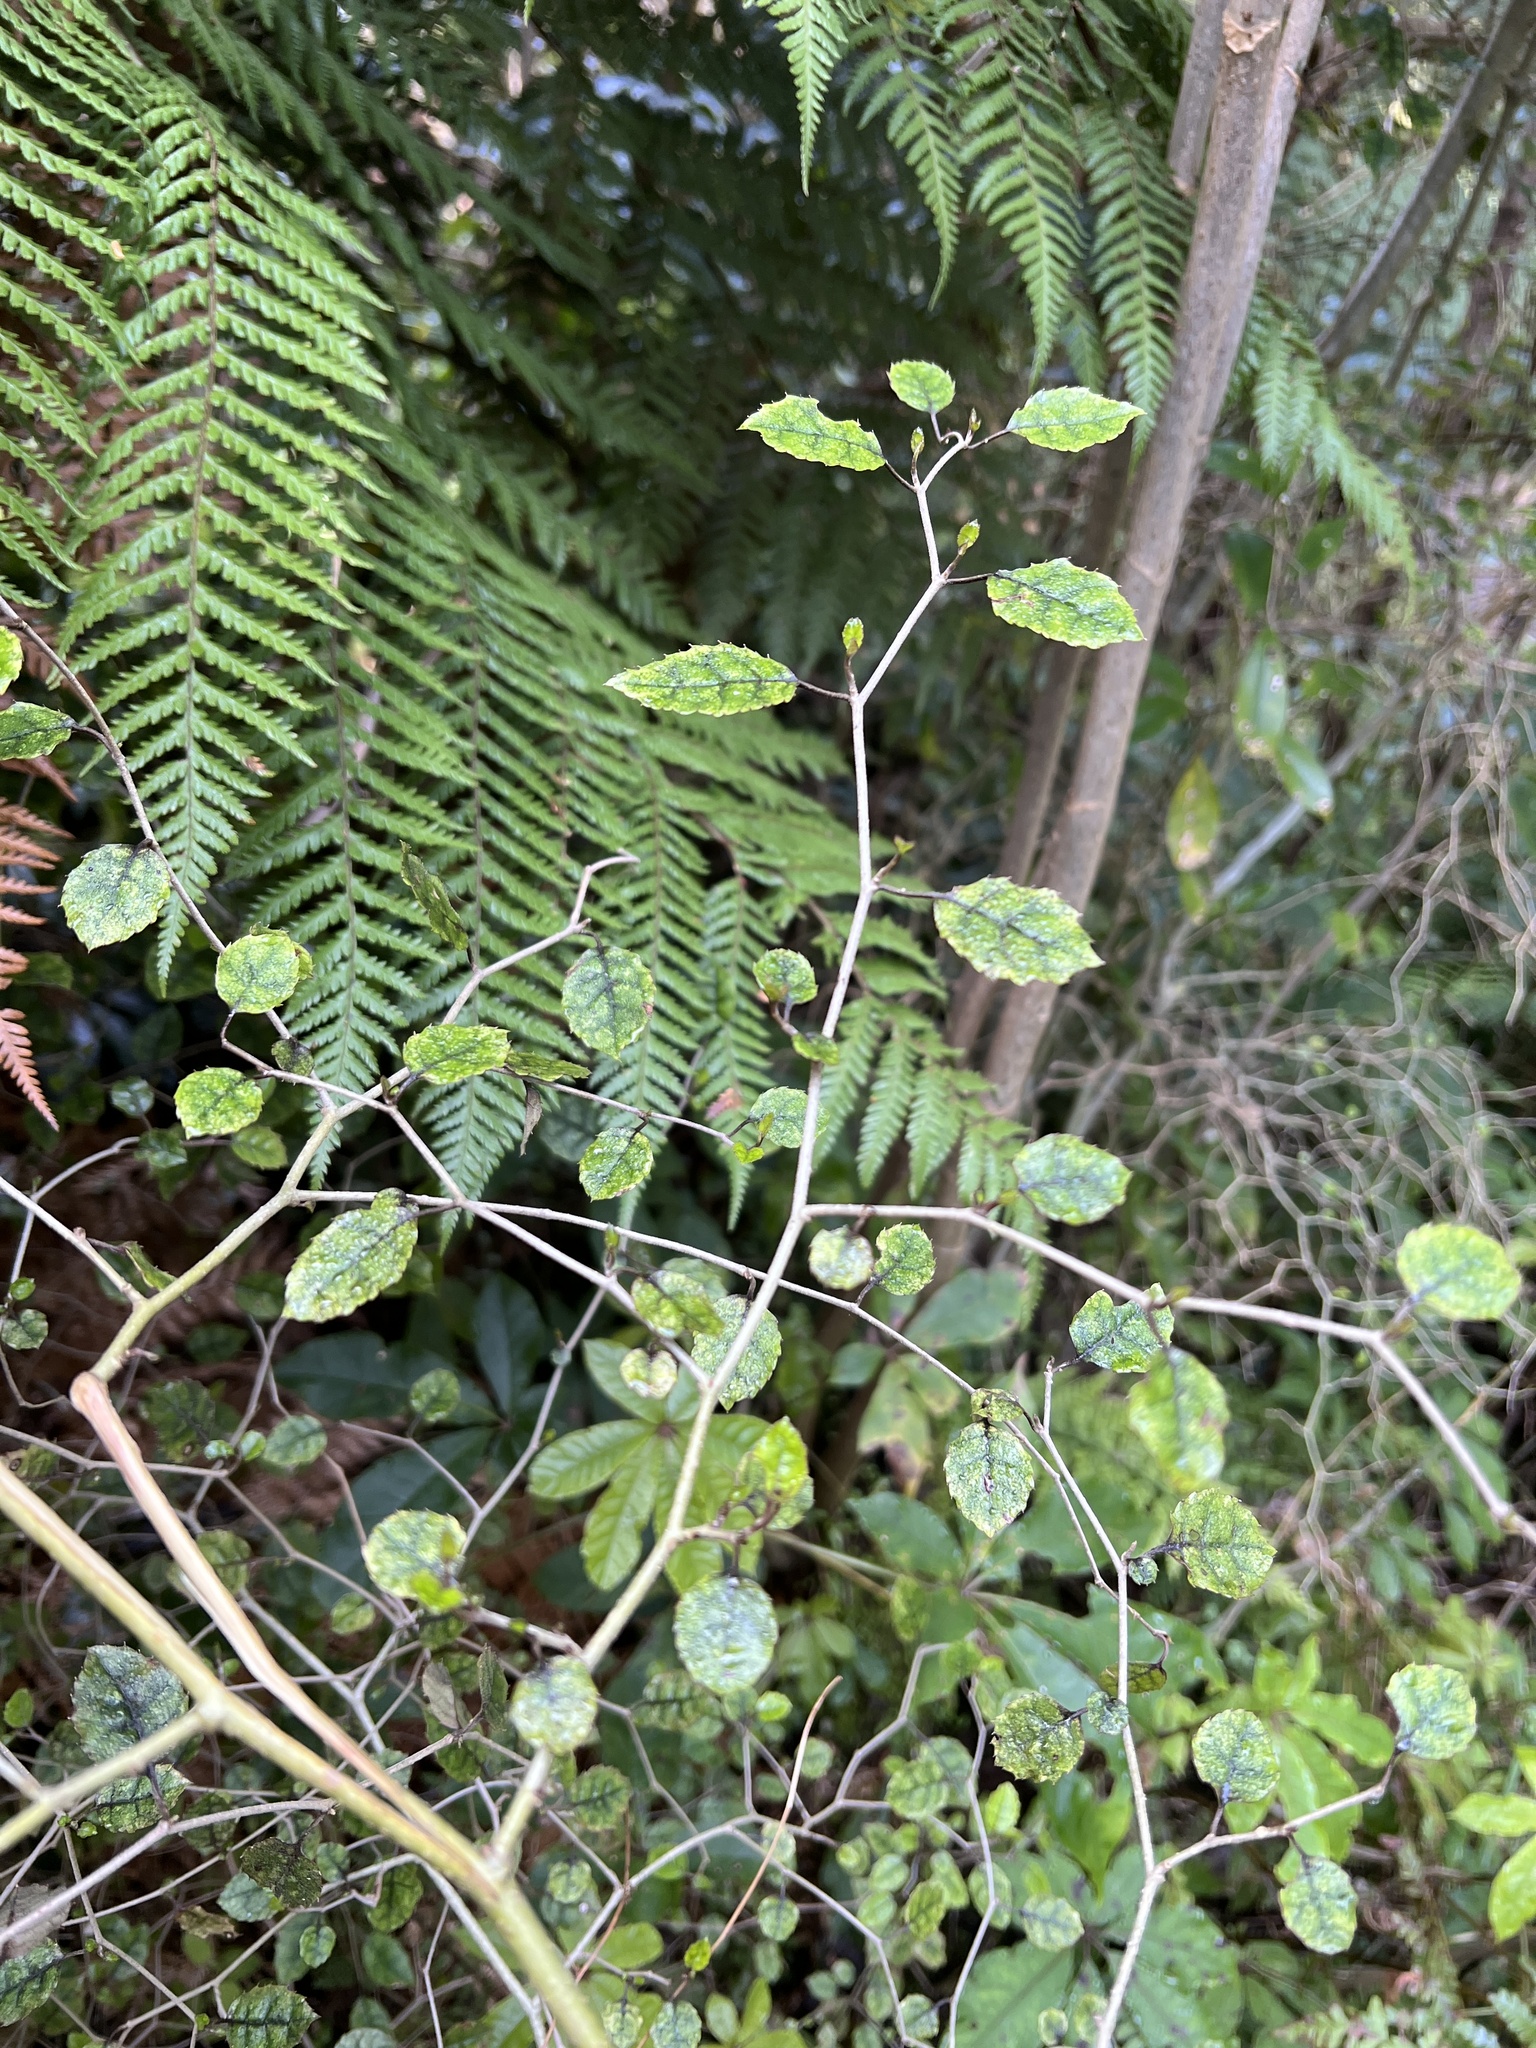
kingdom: Plantae
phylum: Tracheophyta
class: Magnoliopsida
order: Asterales
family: Rousseaceae
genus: Carpodetus
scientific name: Carpodetus serratus
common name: White mapau
